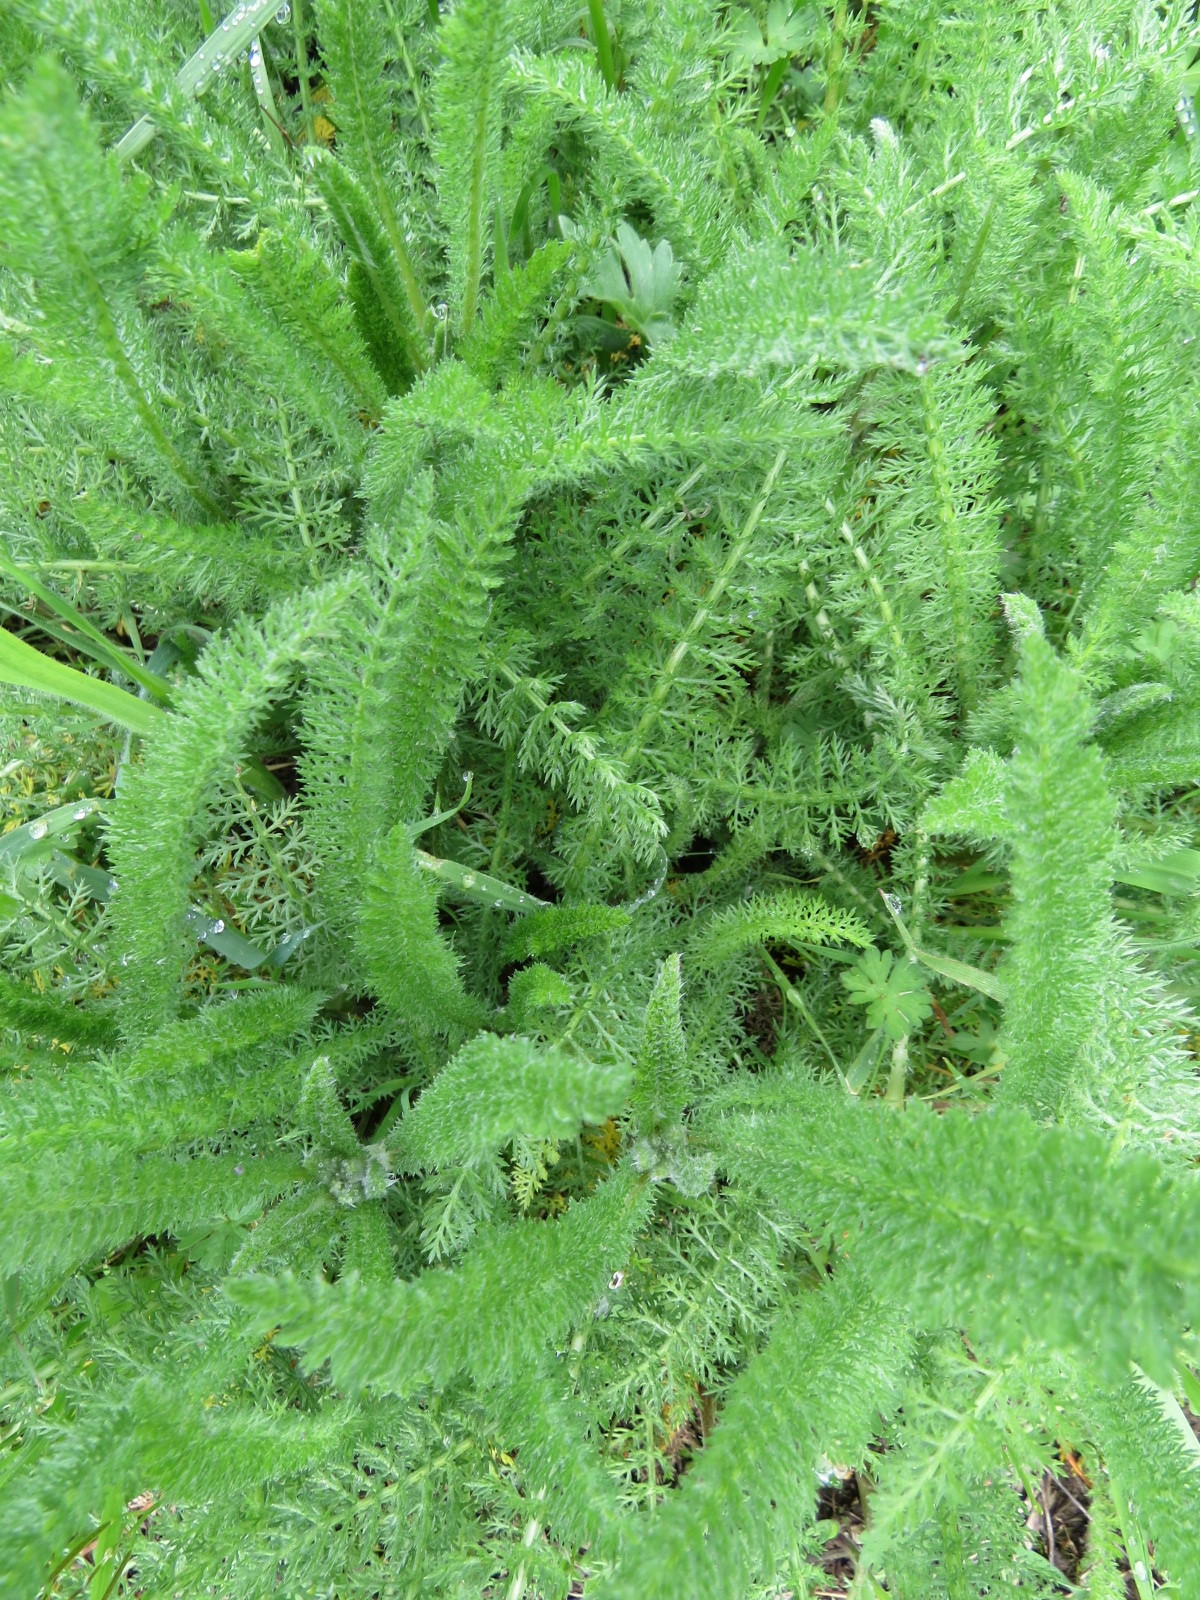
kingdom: Plantae
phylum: Tracheophyta
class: Magnoliopsida
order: Asterales
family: Asteraceae
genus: Achillea
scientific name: Achillea millefolium
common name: Yarrow
